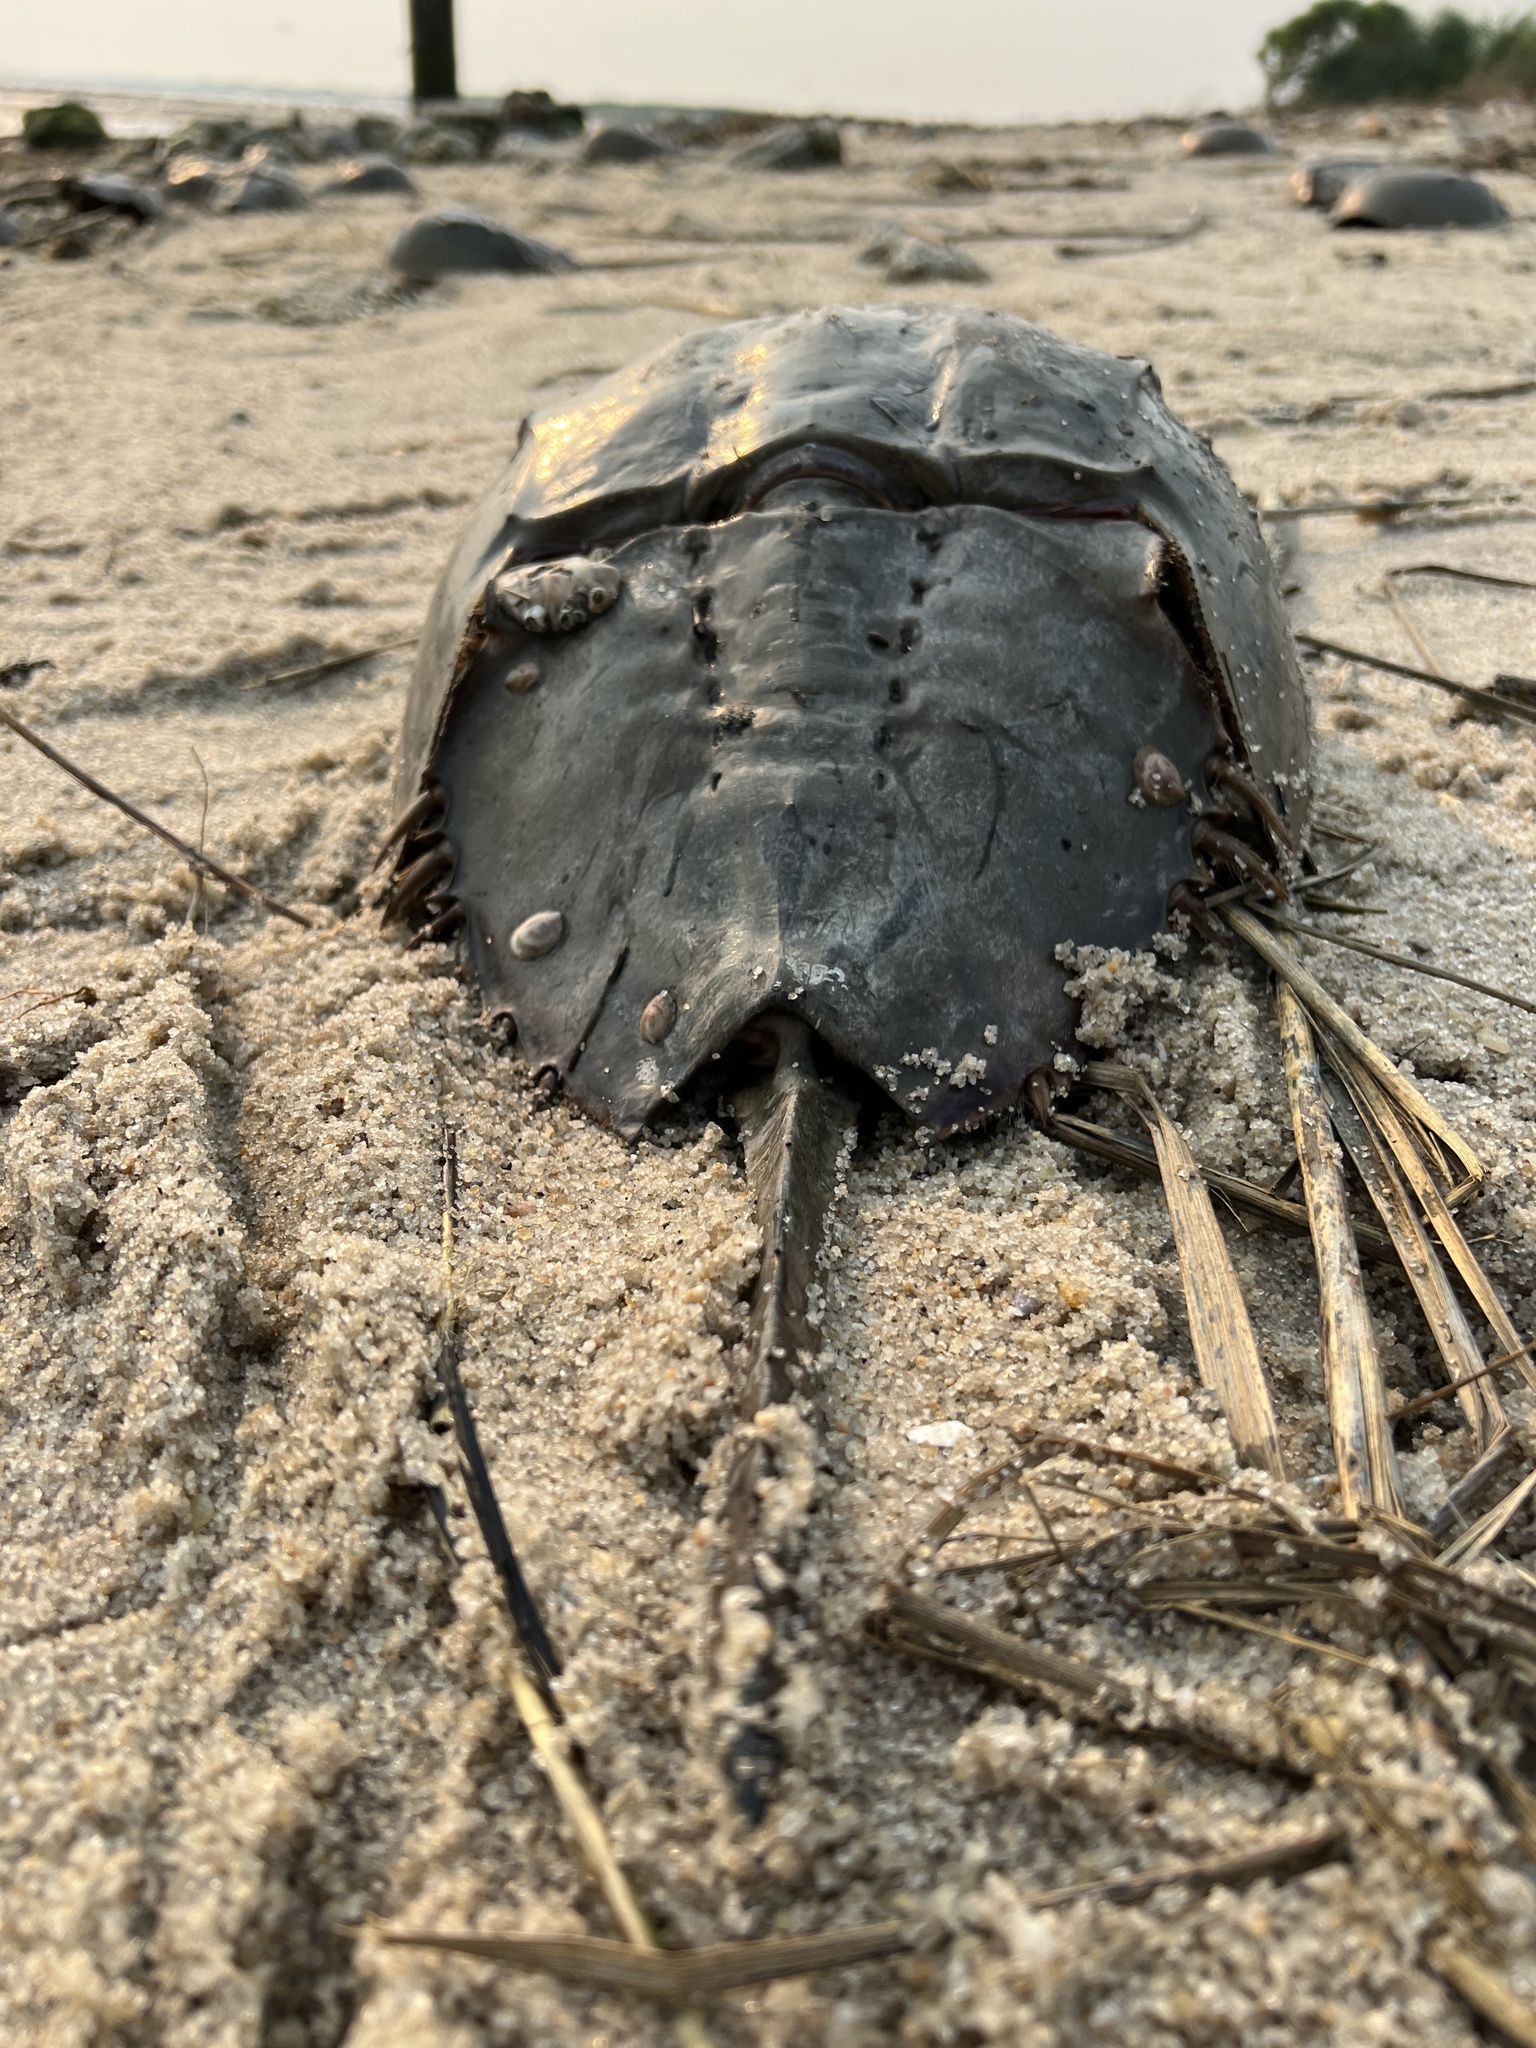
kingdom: Animalia
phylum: Arthropoda
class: Merostomata
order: Xiphosurida
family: Limulidae
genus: Limulus
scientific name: Limulus polyphemus
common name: Horseshoe crab
